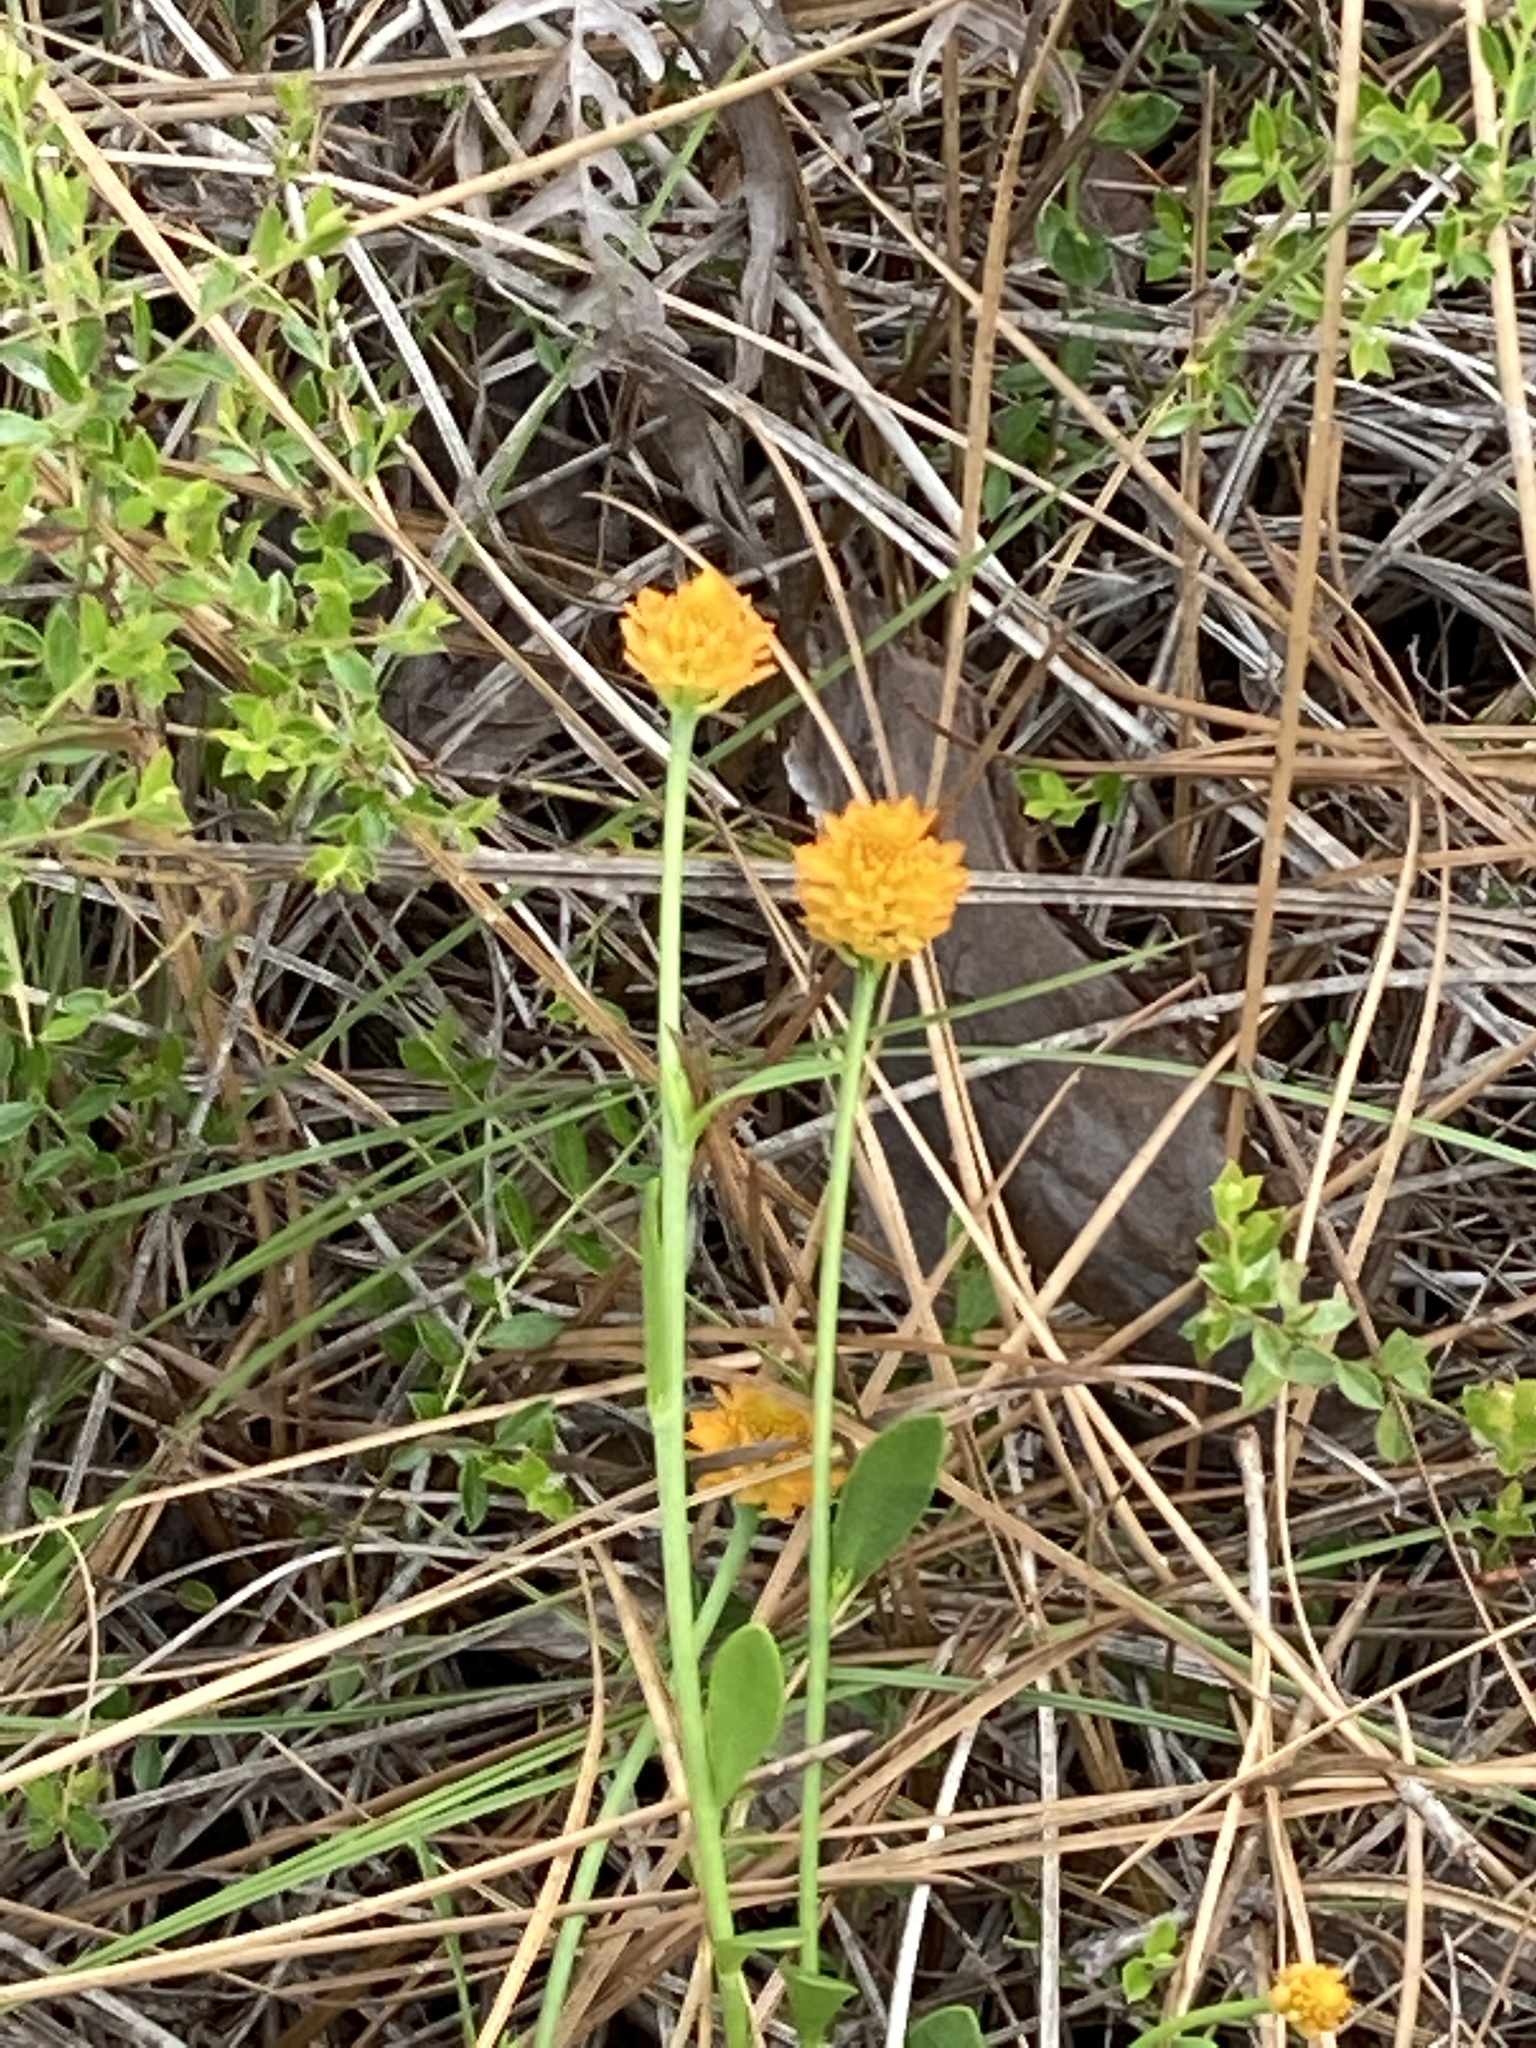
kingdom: Plantae
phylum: Tracheophyta
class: Magnoliopsida
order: Fabales
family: Polygalaceae
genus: Polygala
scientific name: Polygala lutea
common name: Orange milkwort
